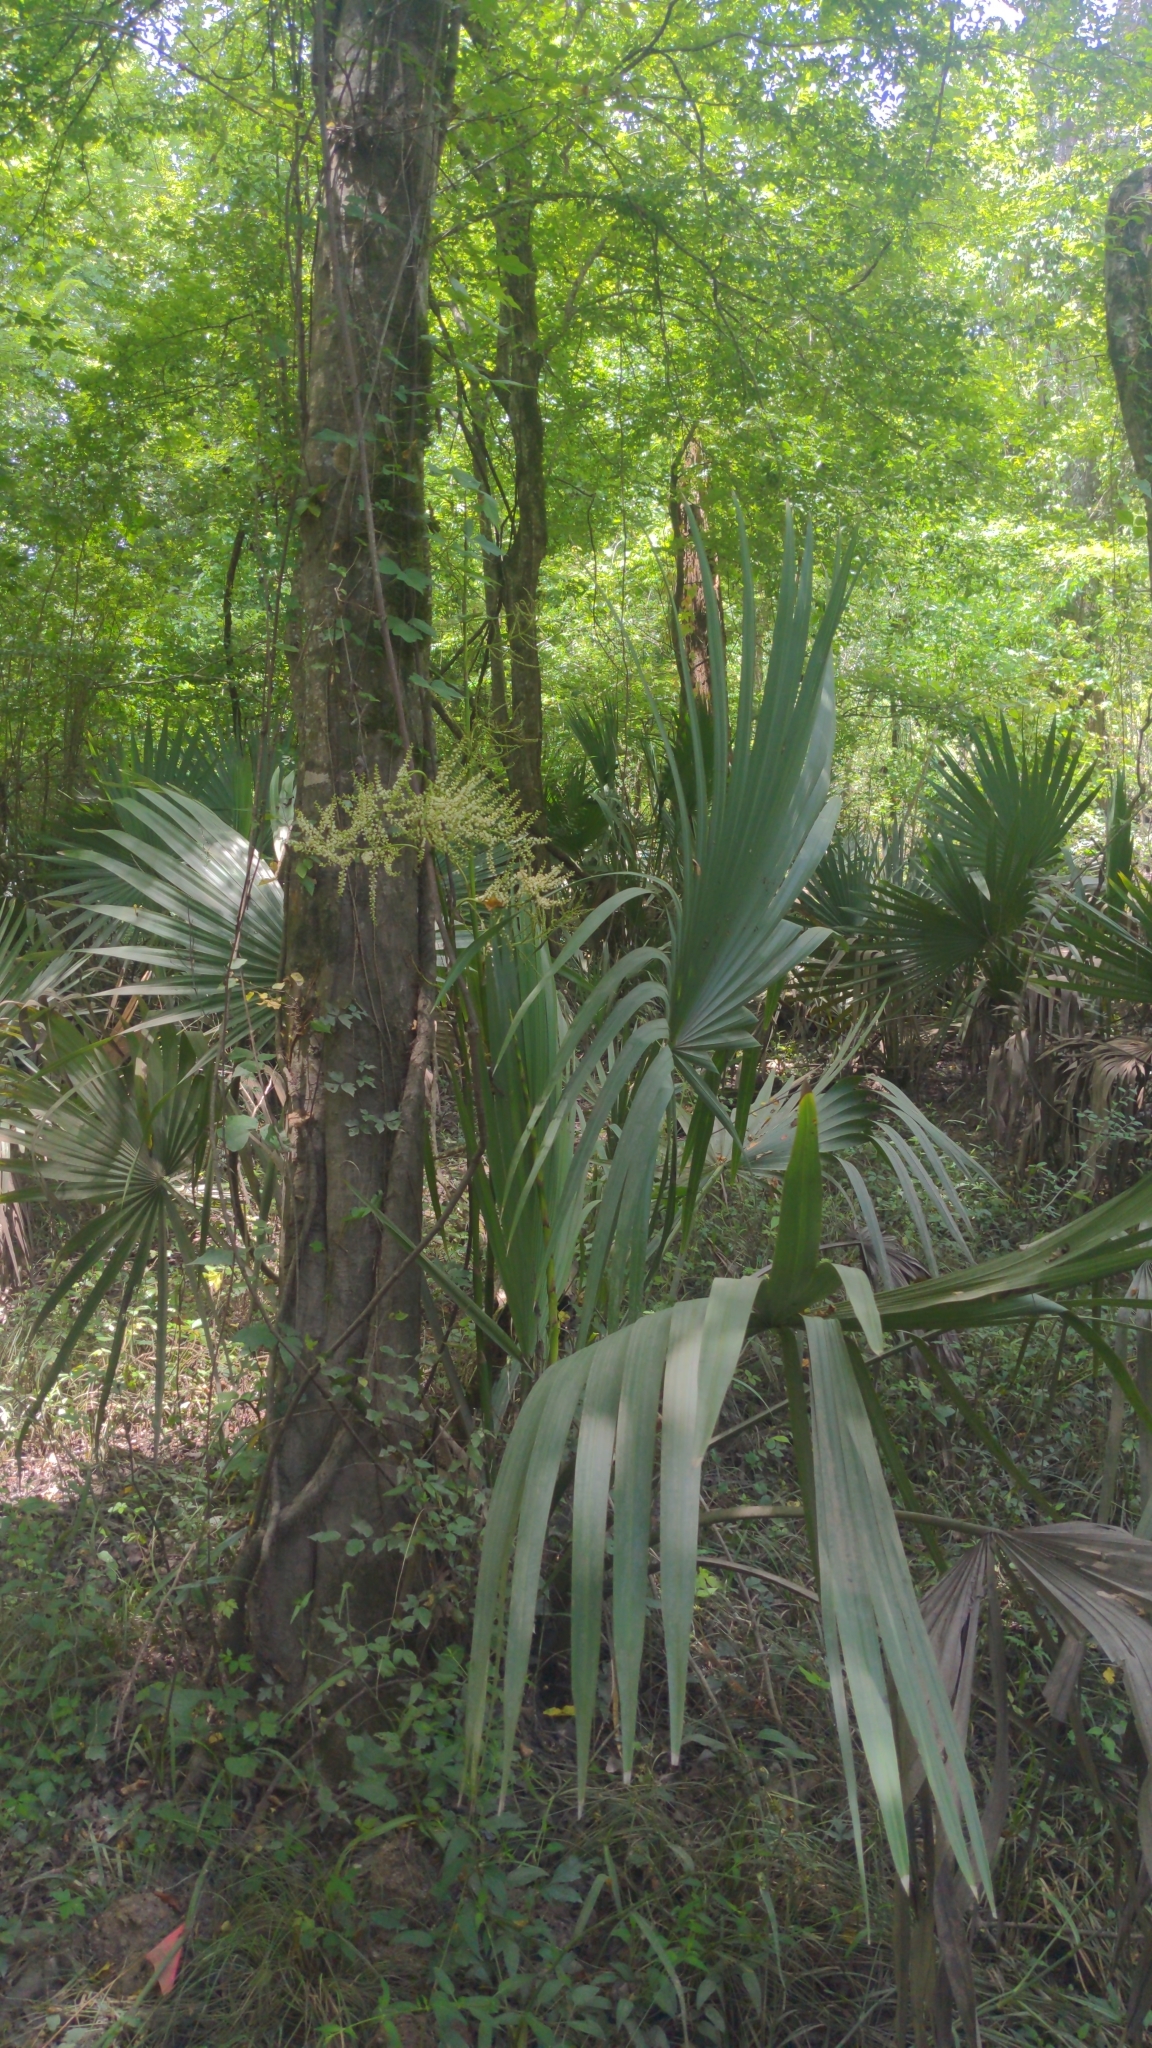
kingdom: Plantae
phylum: Tracheophyta
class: Liliopsida
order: Arecales
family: Arecaceae
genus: Sabal
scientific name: Sabal minor
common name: Dwarf palmetto
